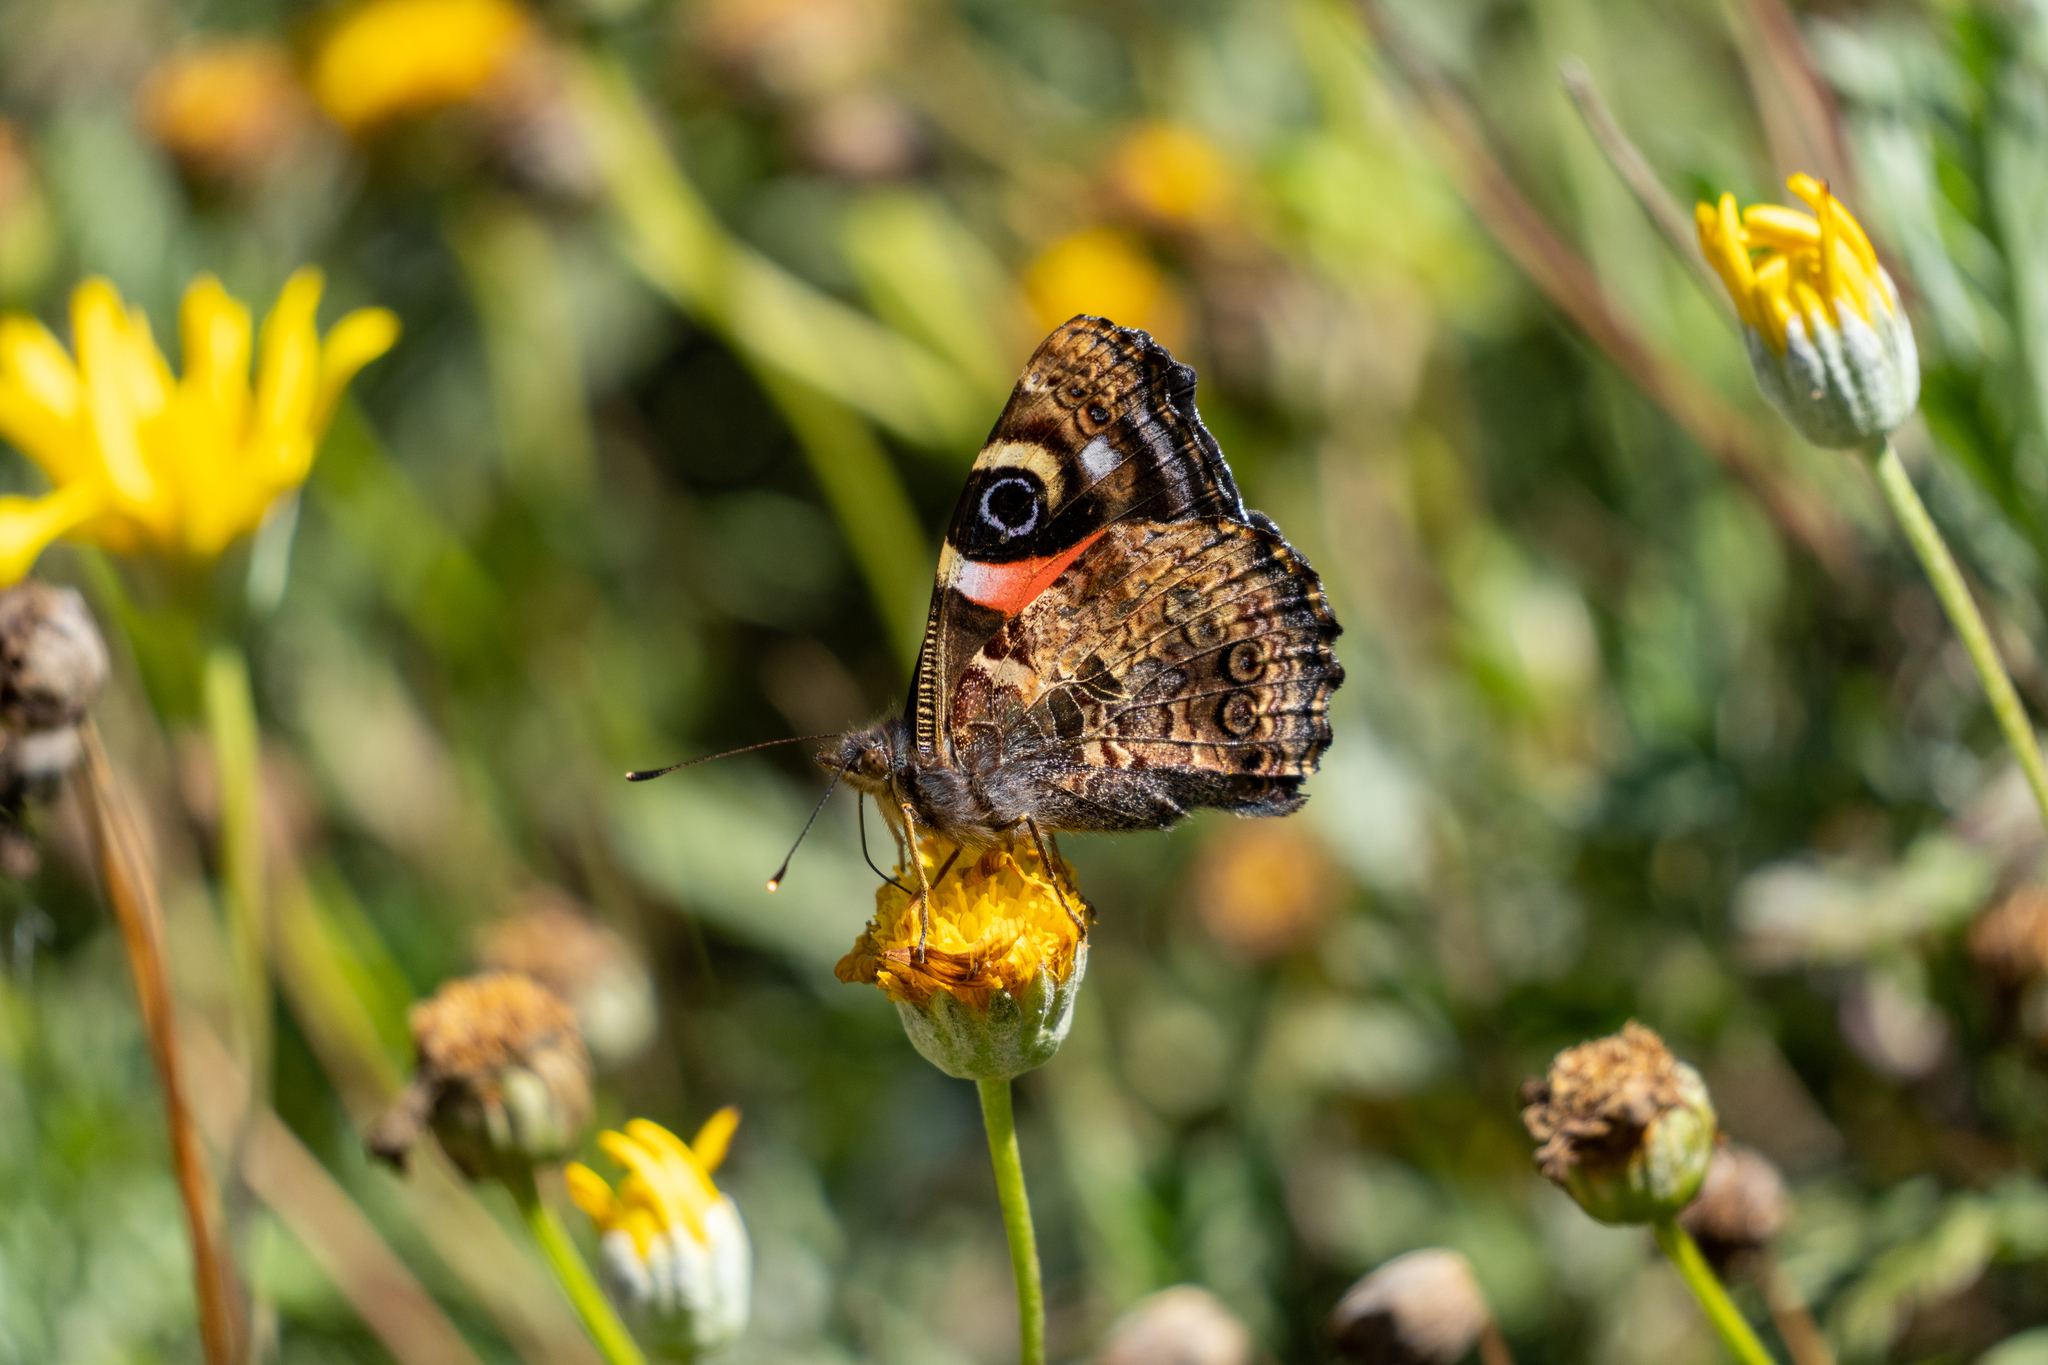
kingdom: Animalia
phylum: Arthropoda
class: Insecta
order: Lepidoptera
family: Nymphalidae
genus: Vanessa
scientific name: Vanessa gonerilla
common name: New zealand red admiral
